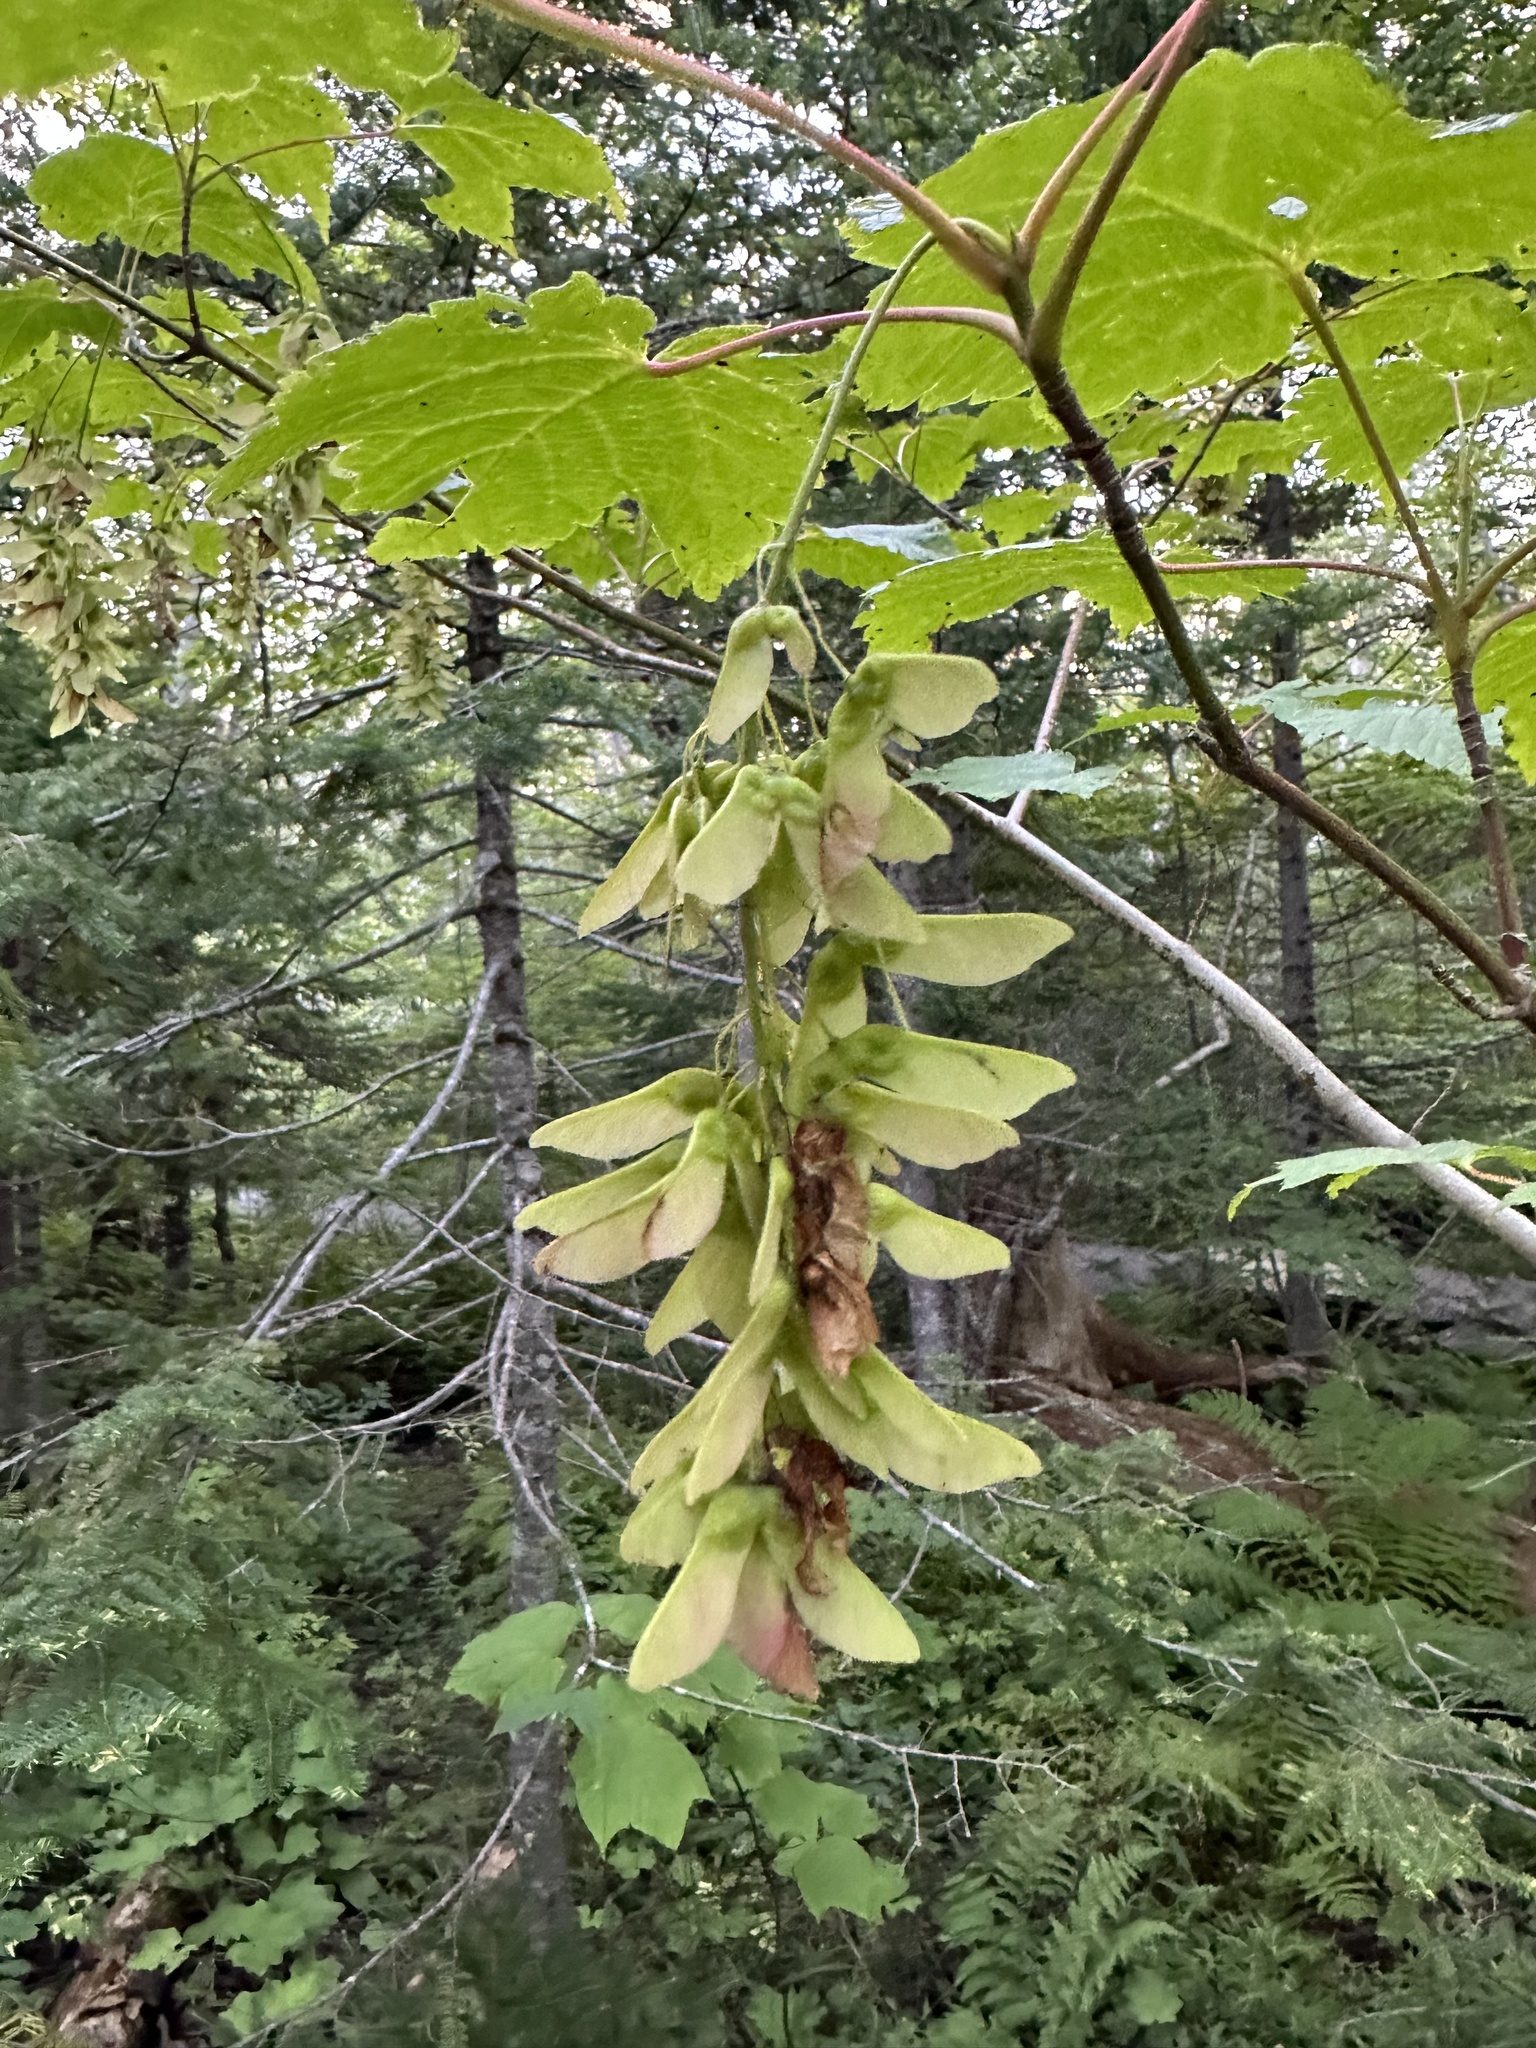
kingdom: Plantae
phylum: Tracheophyta
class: Magnoliopsida
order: Sapindales
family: Sapindaceae
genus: Acer
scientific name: Acer spicatum
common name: Mountain maple
